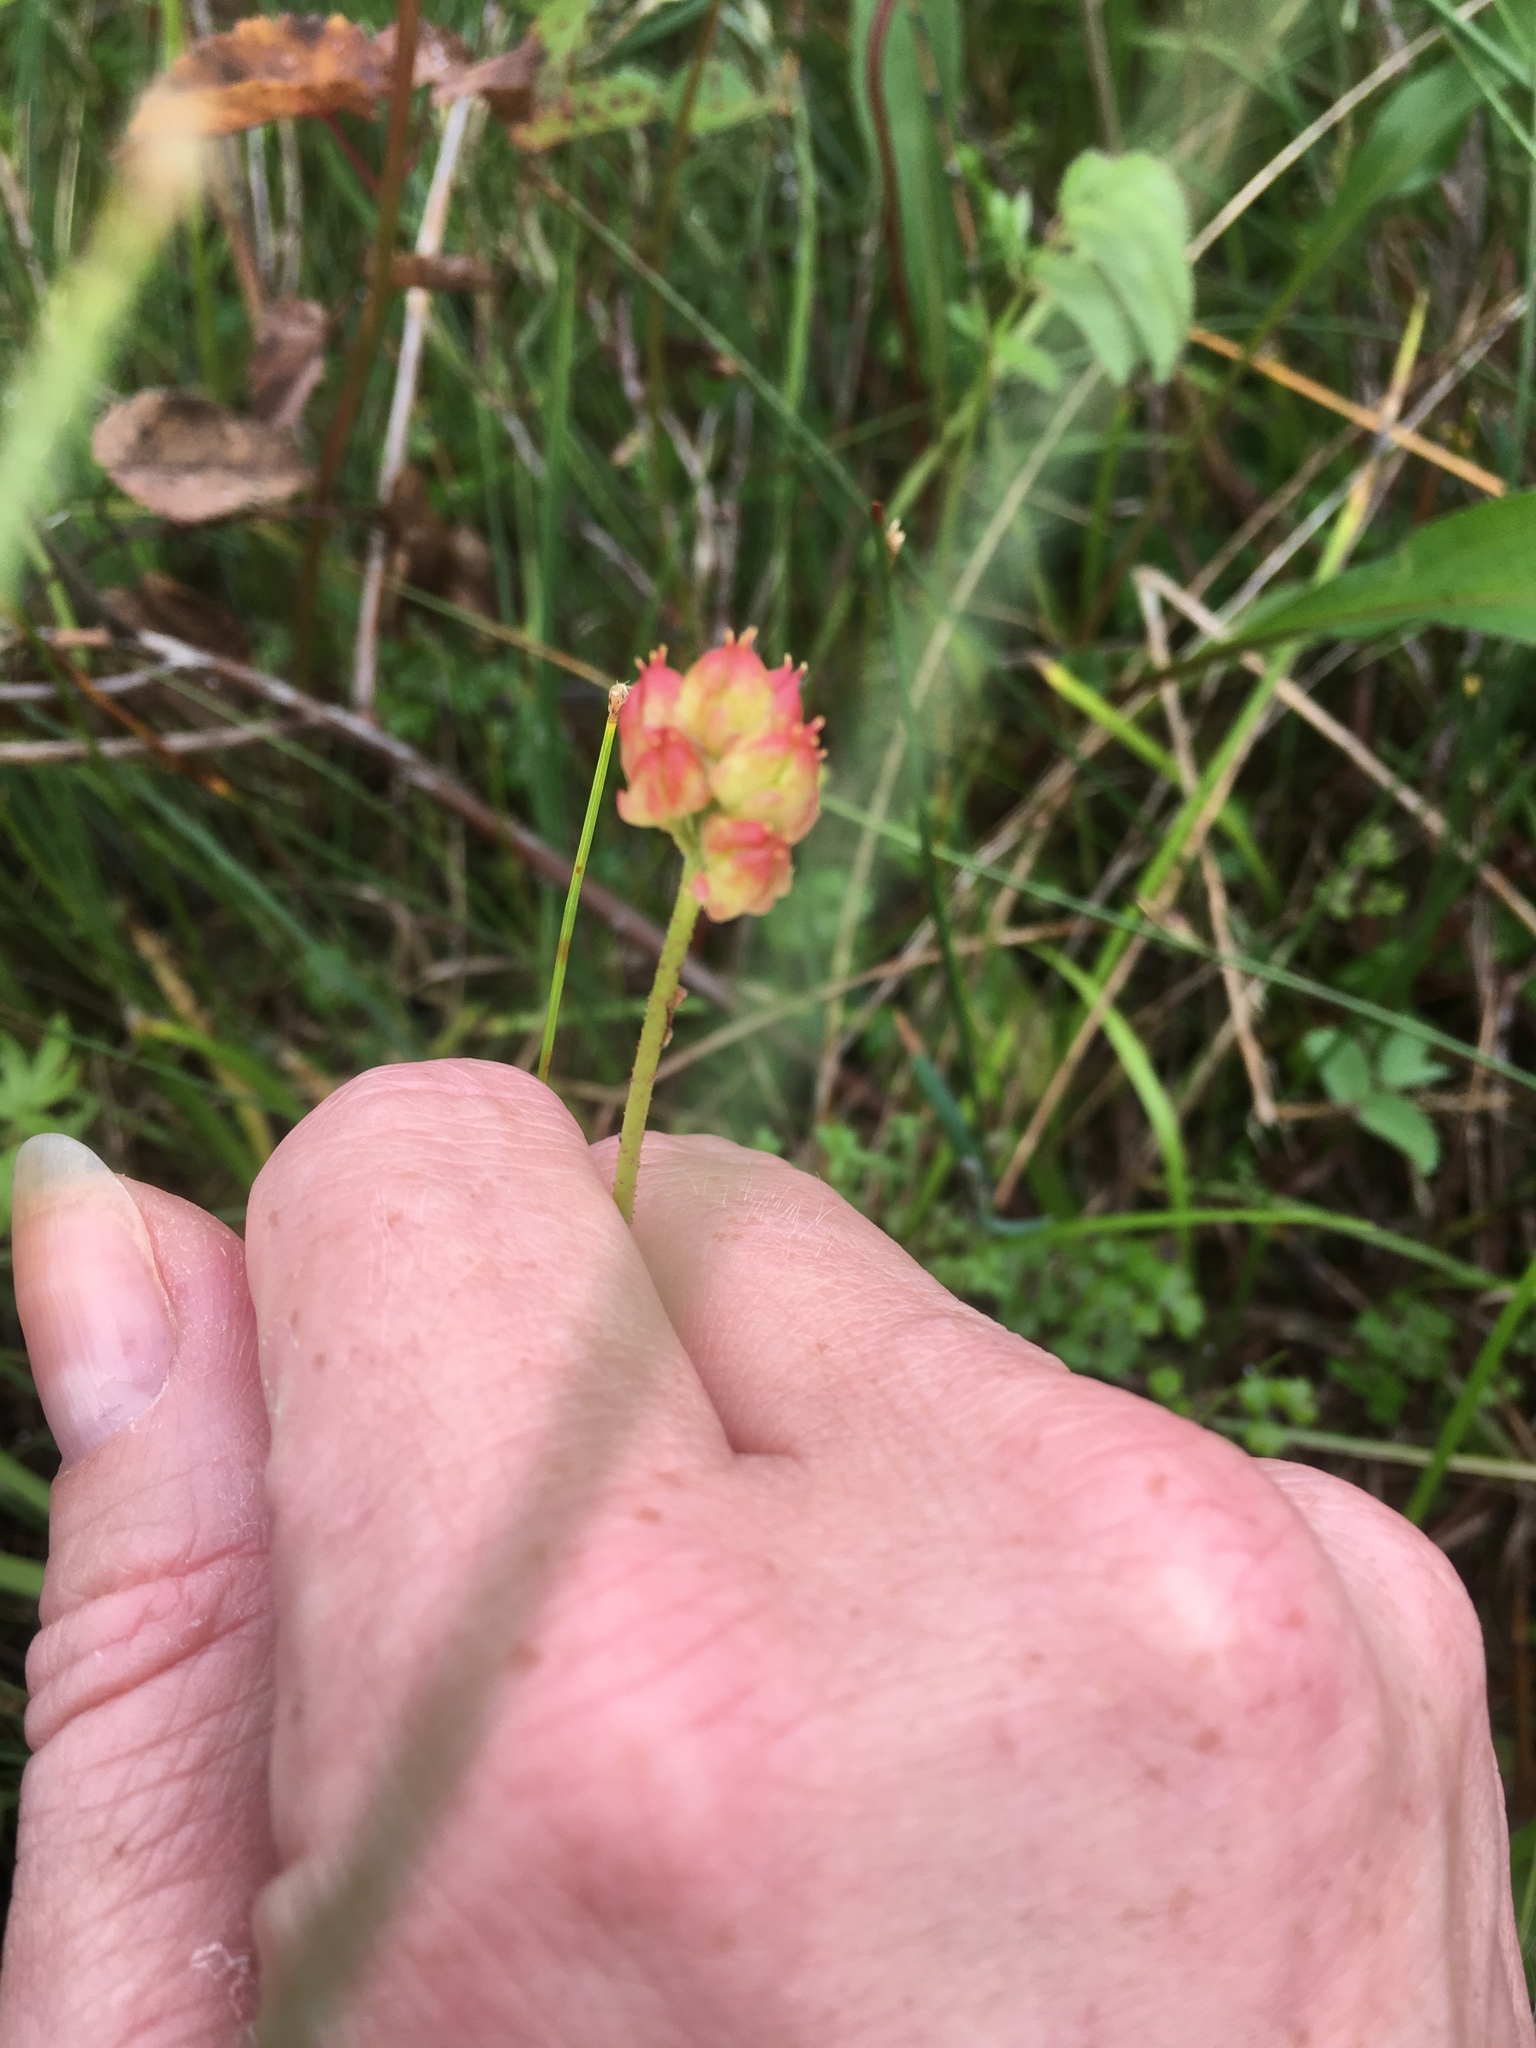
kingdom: Plantae
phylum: Tracheophyta
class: Liliopsida
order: Alismatales
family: Tofieldiaceae
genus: Triantha
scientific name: Triantha glutinosa
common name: Glutinous tofieldia
